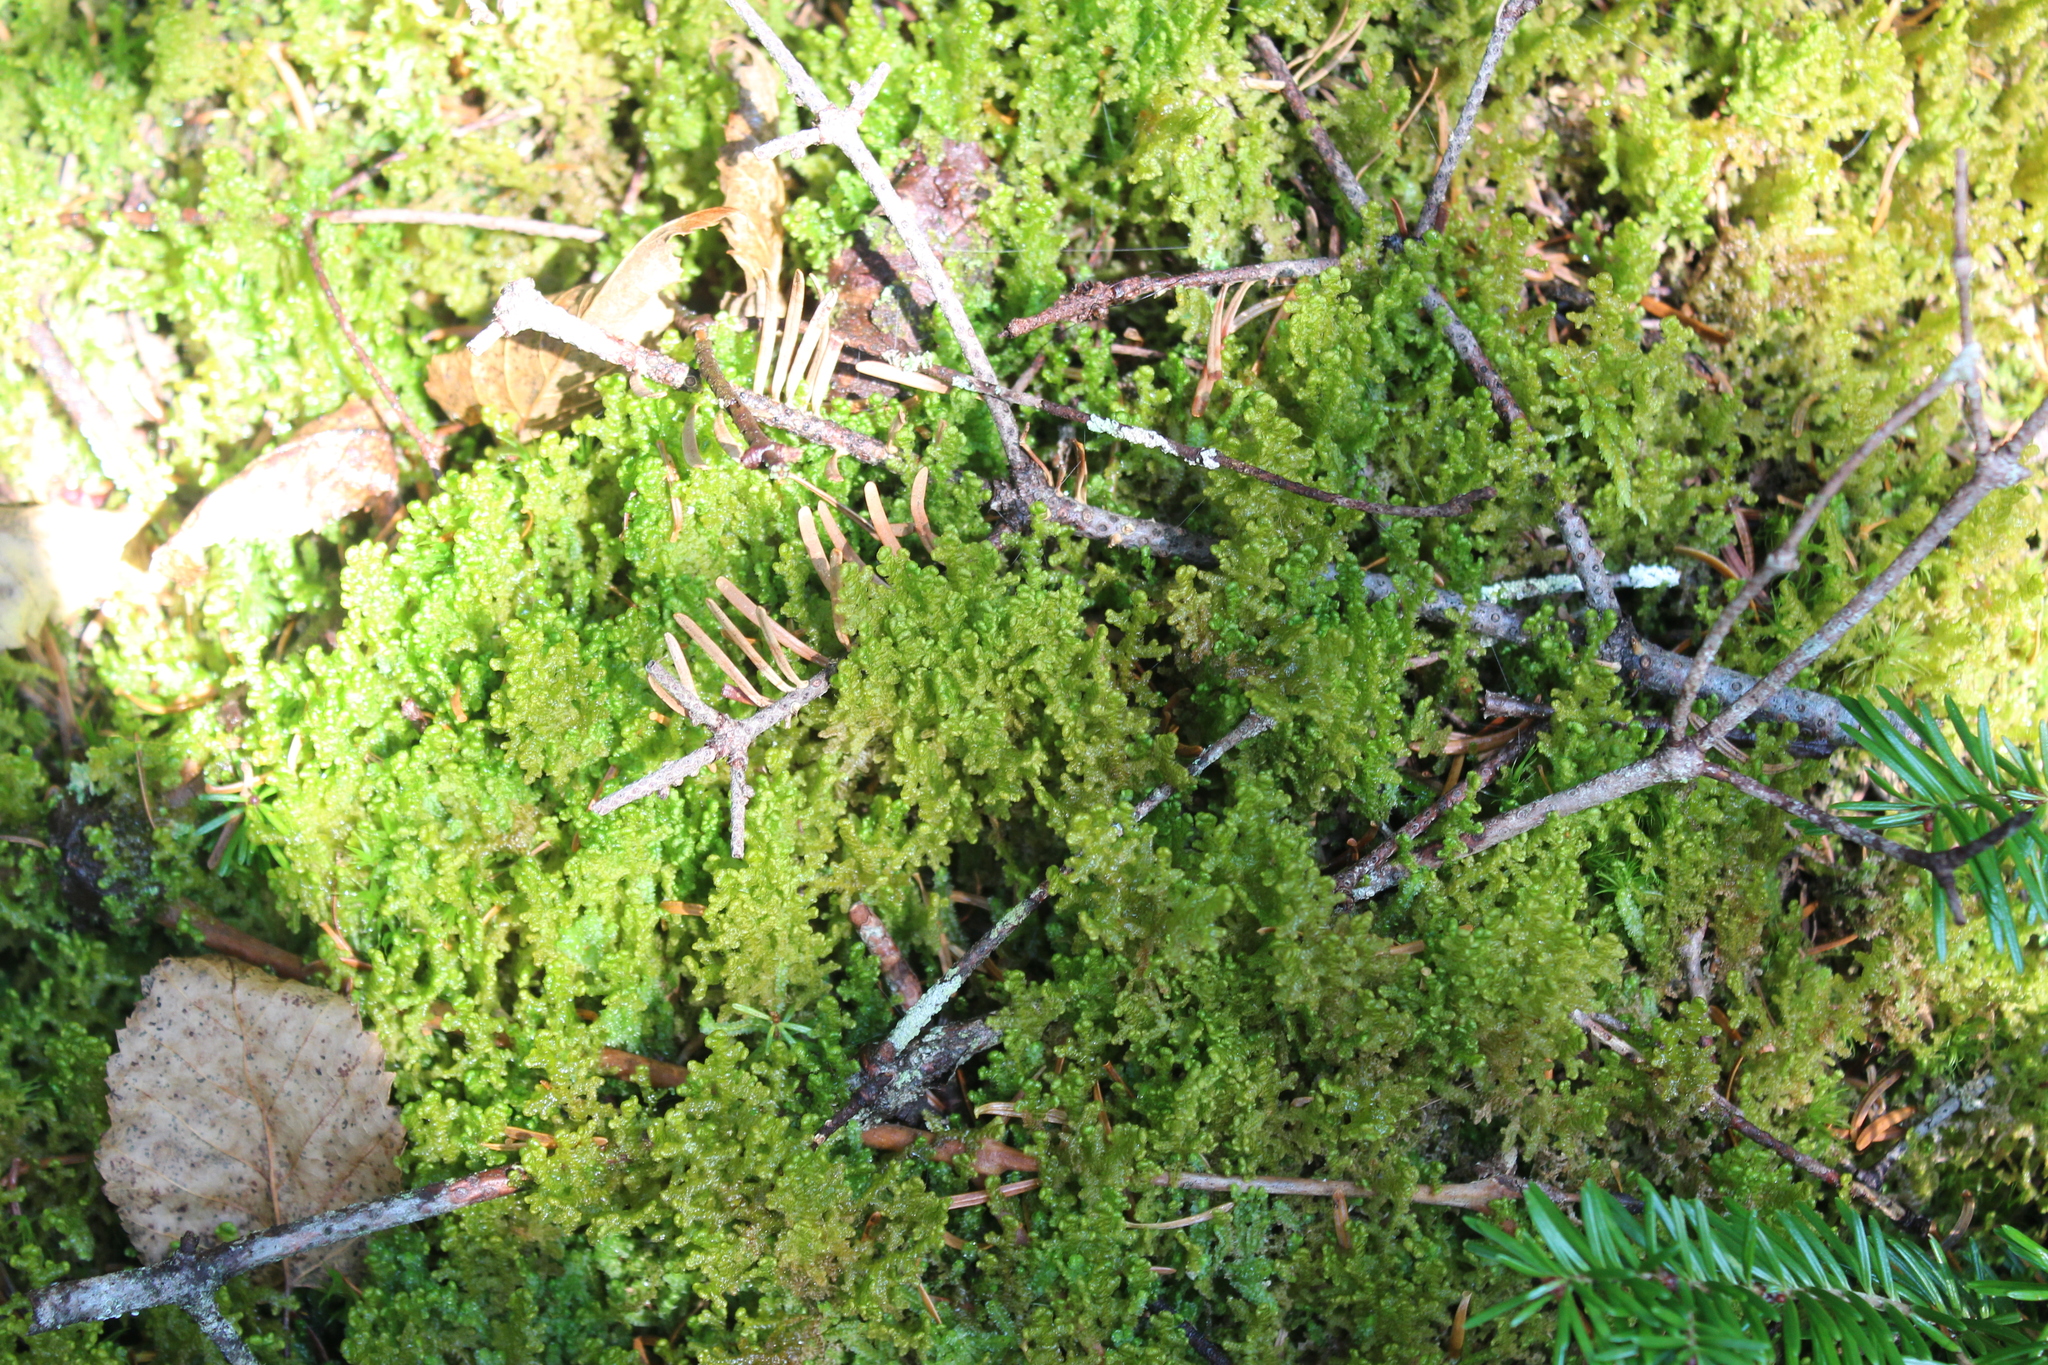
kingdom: Plantae
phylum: Marchantiophyta
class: Jungermanniopsida
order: Ptilidiales
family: Ptilidiaceae
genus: Ptilidium
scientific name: Ptilidium ciliare
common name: Ciliate fringewort
